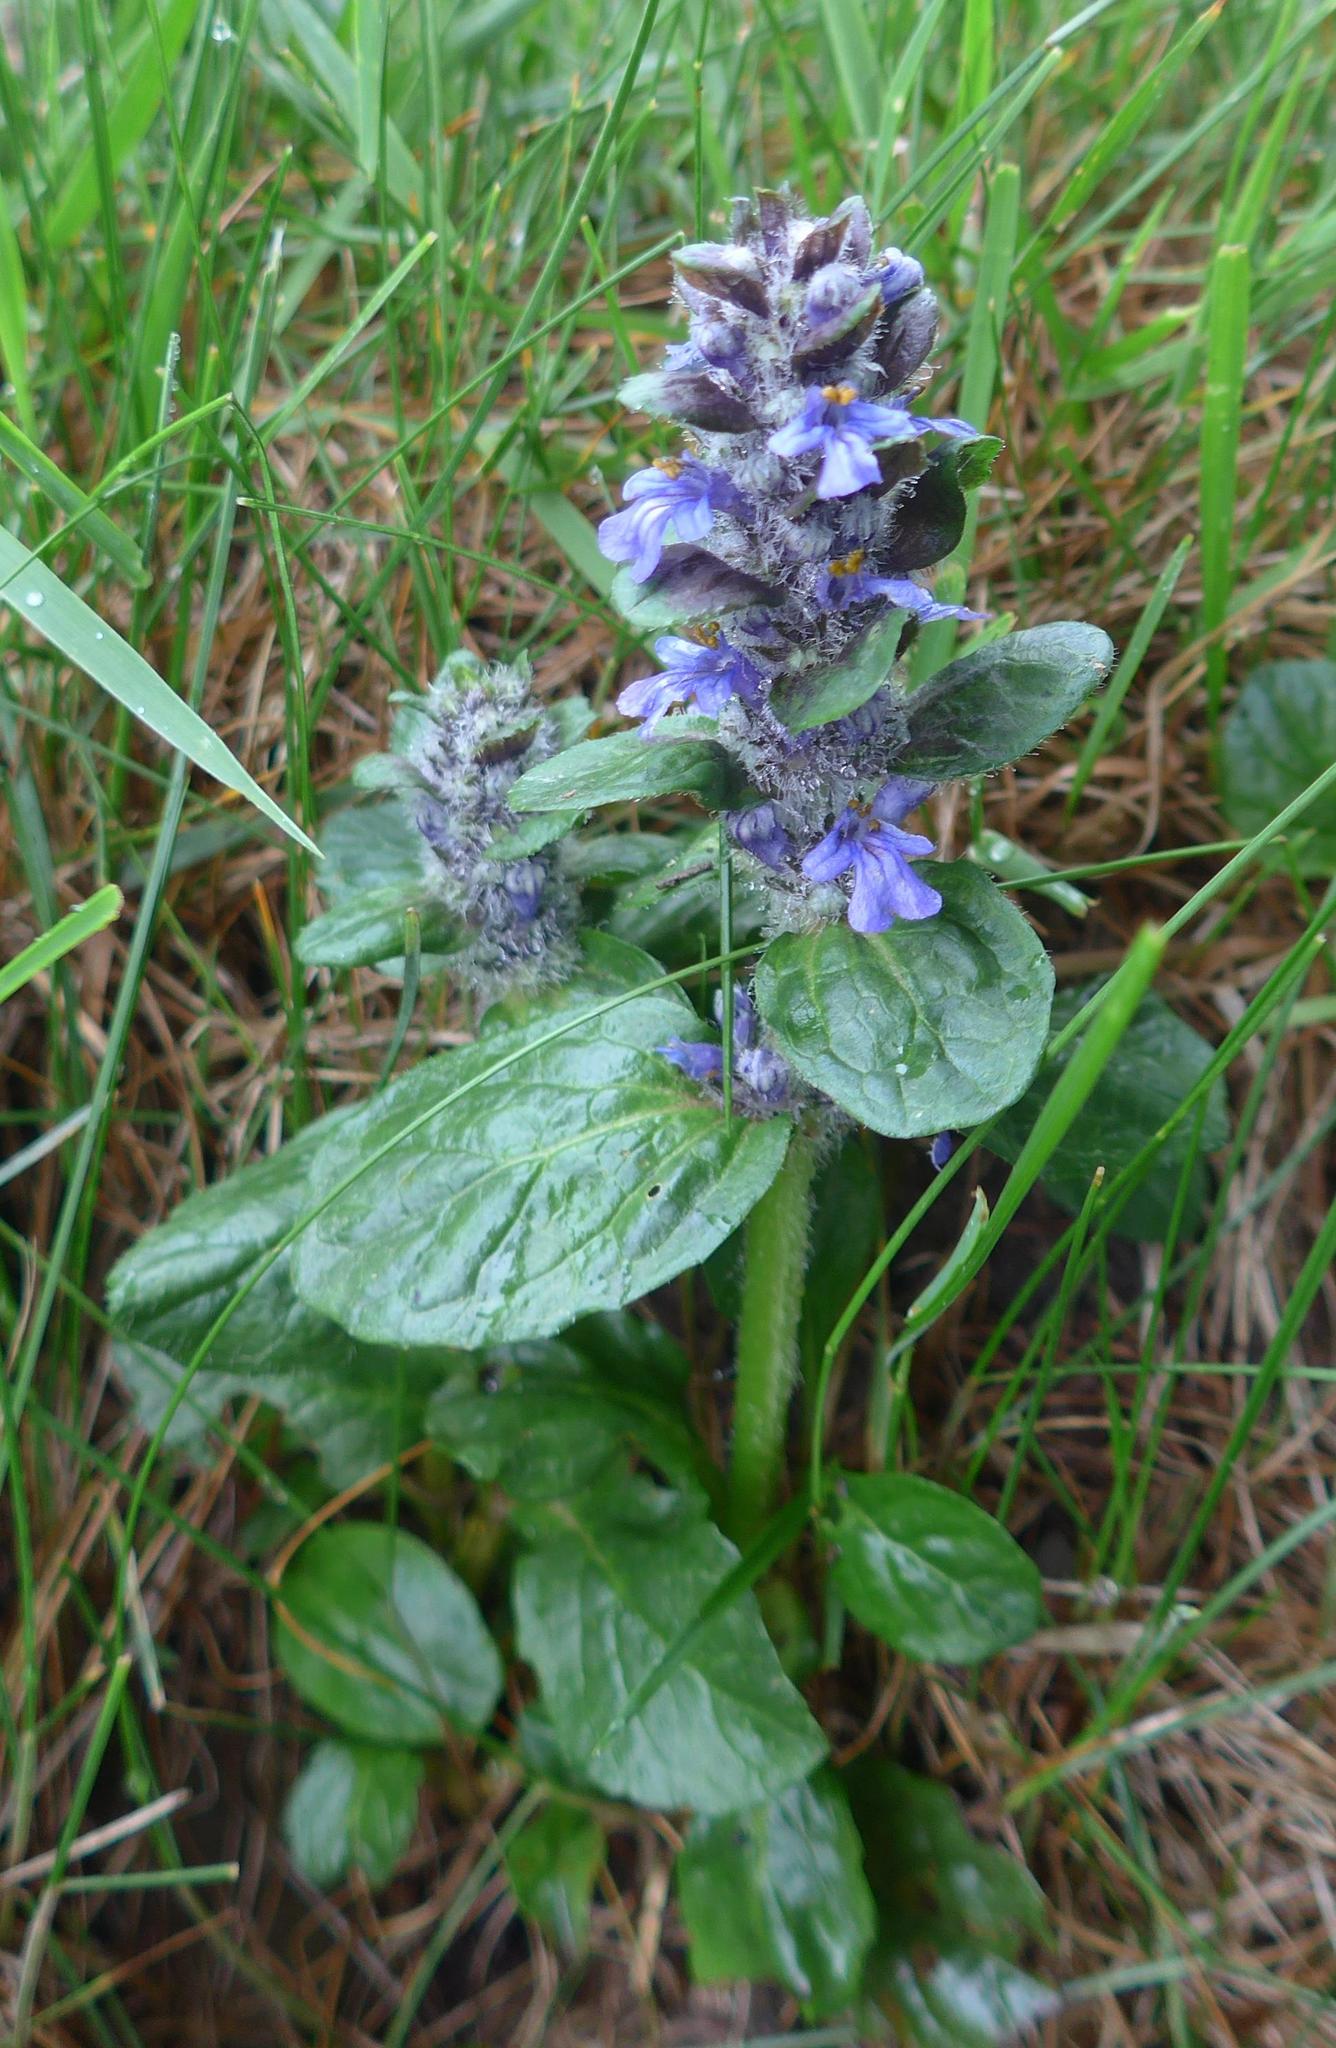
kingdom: Plantae
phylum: Tracheophyta
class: Magnoliopsida
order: Lamiales
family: Lamiaceae
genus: Ajuga
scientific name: Ajuga reptans
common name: Bugle
